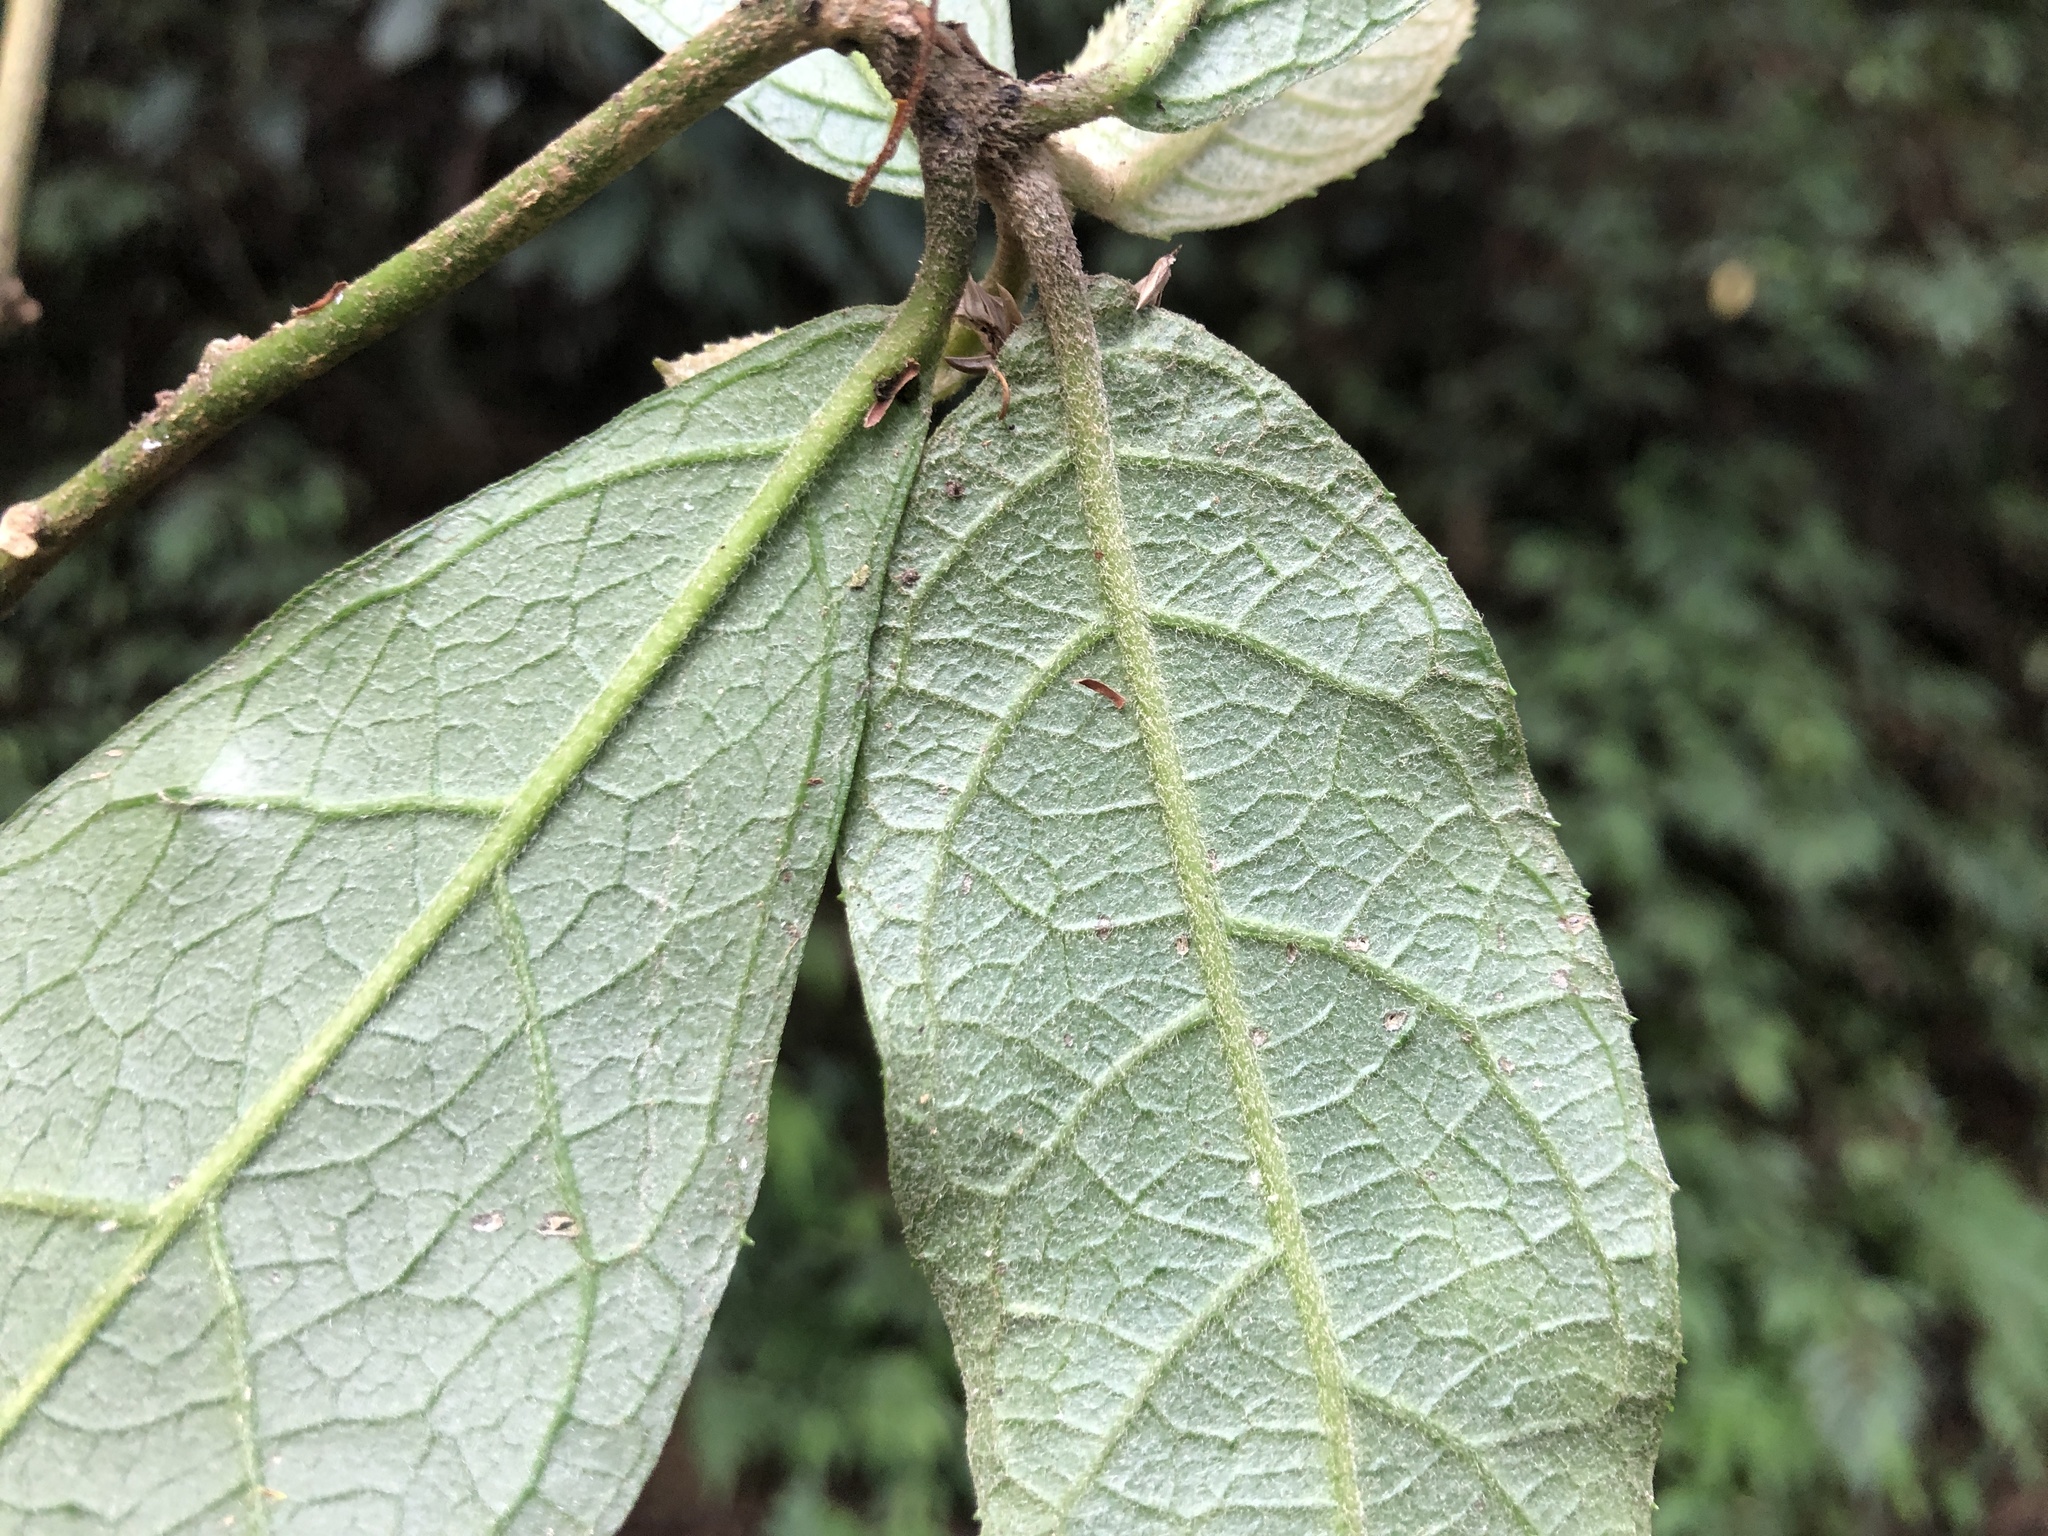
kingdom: Plantae
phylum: Tracheophyta
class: Magnoliopsida
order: Asterales
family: Asteraceae
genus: Decaneuropsis
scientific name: Decaneuropsis gratiosa
